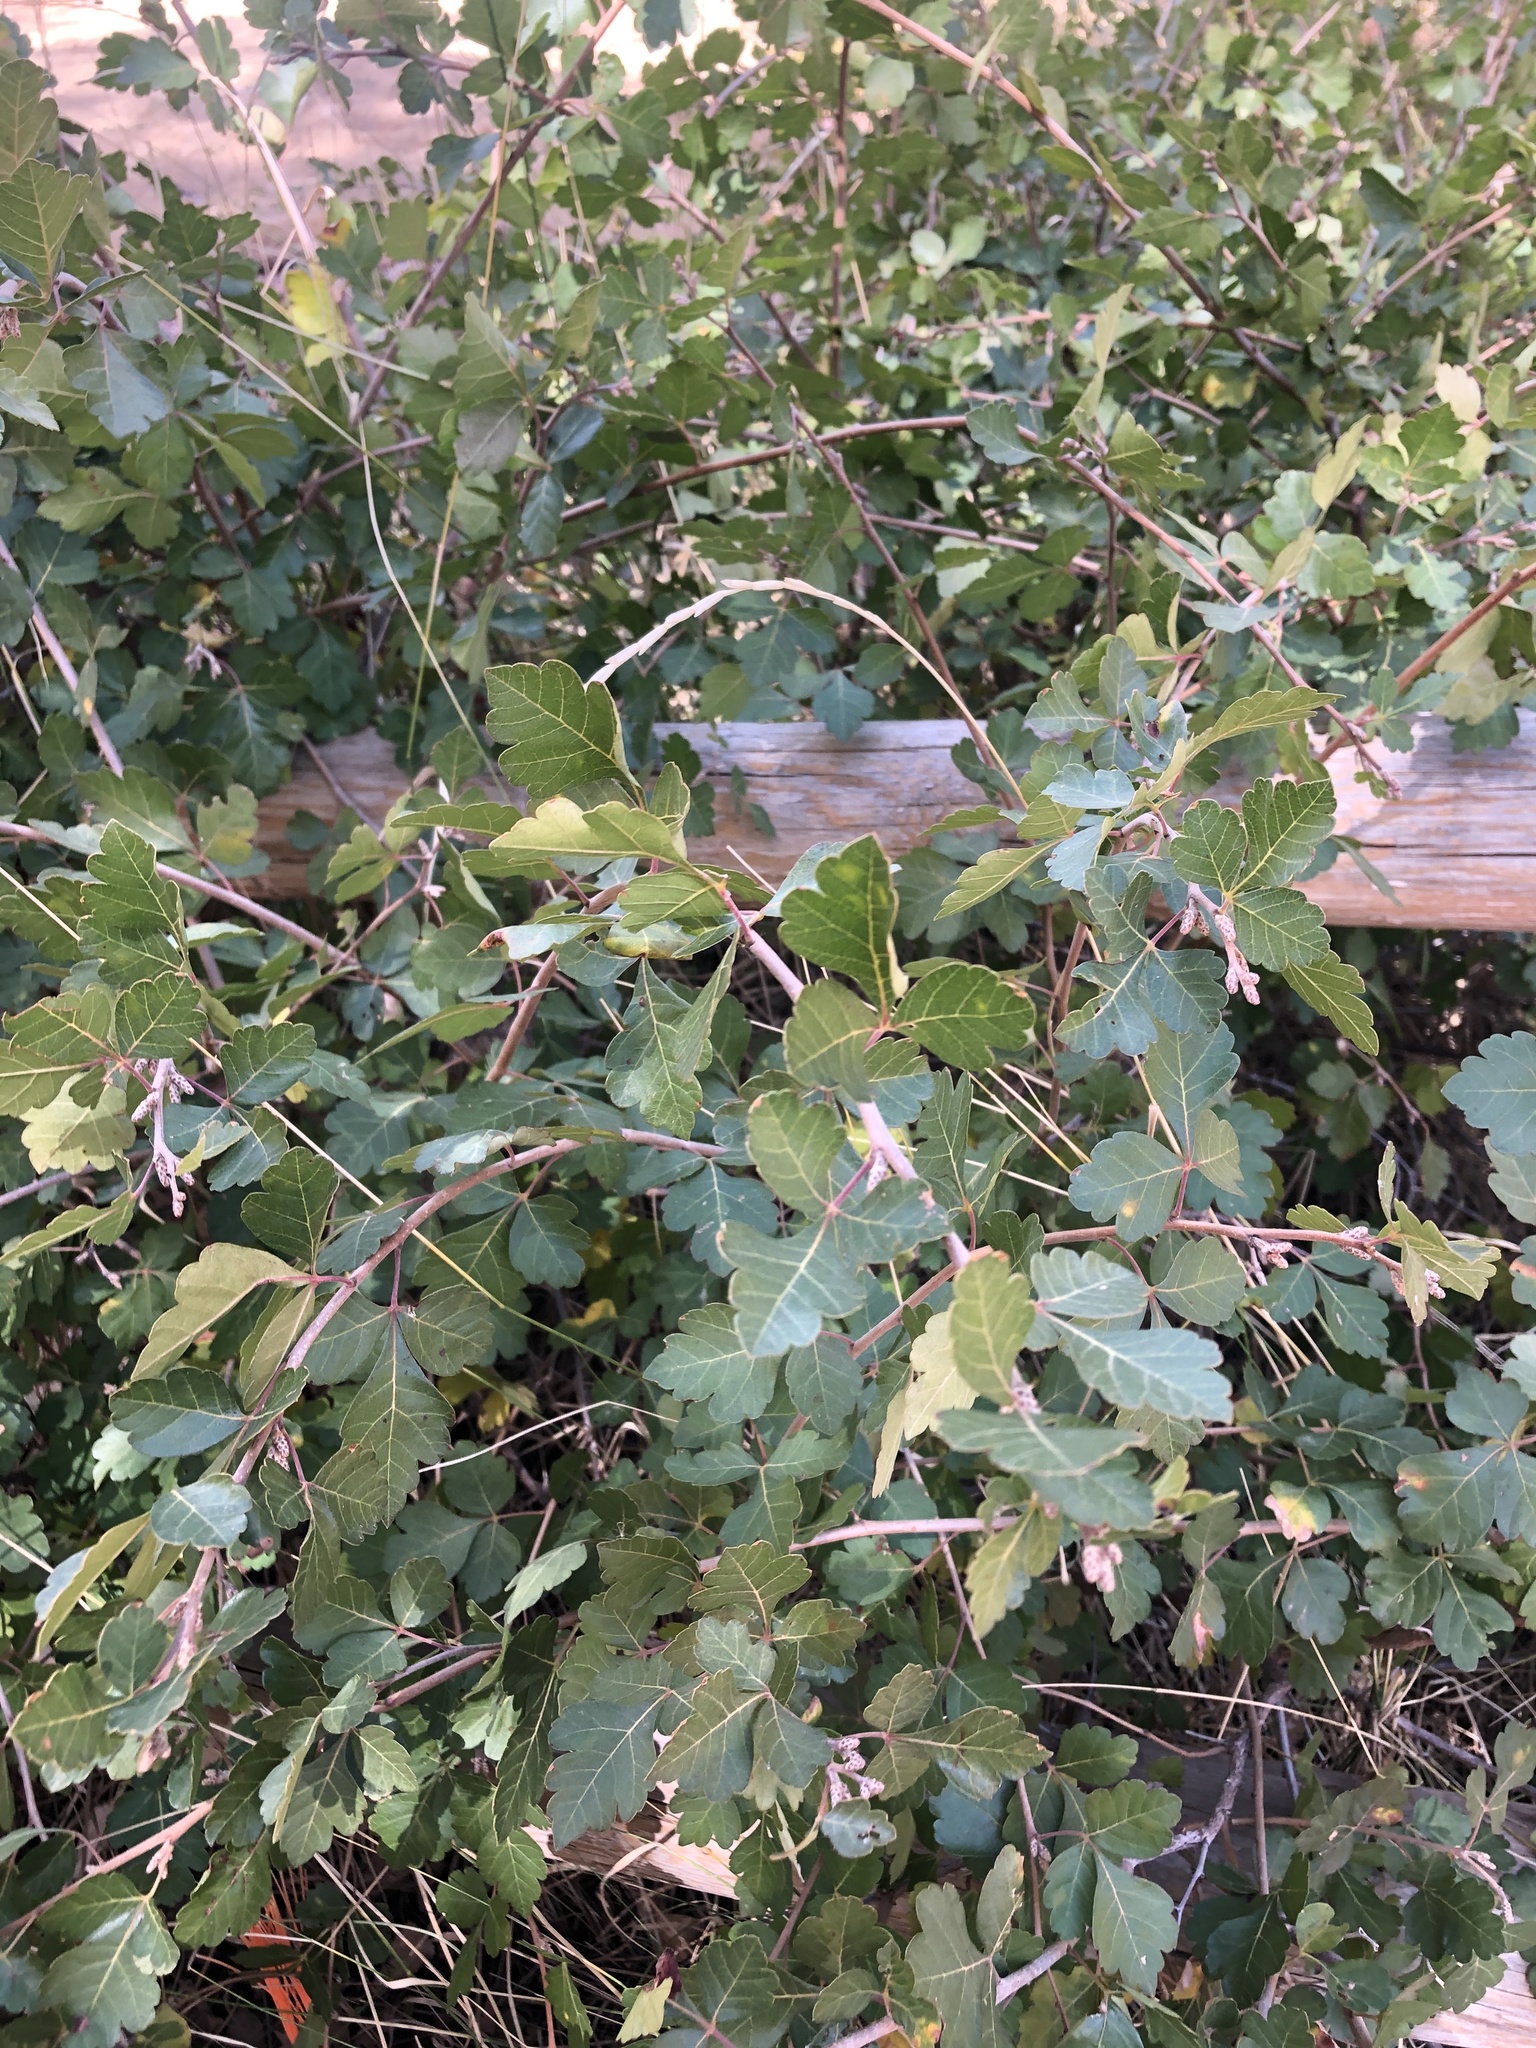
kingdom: Plantae
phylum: Tracheophyta
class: Magnoliopsida
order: Sapindales
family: Anacardiaceae
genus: Rhus
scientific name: Rhus trilobata
